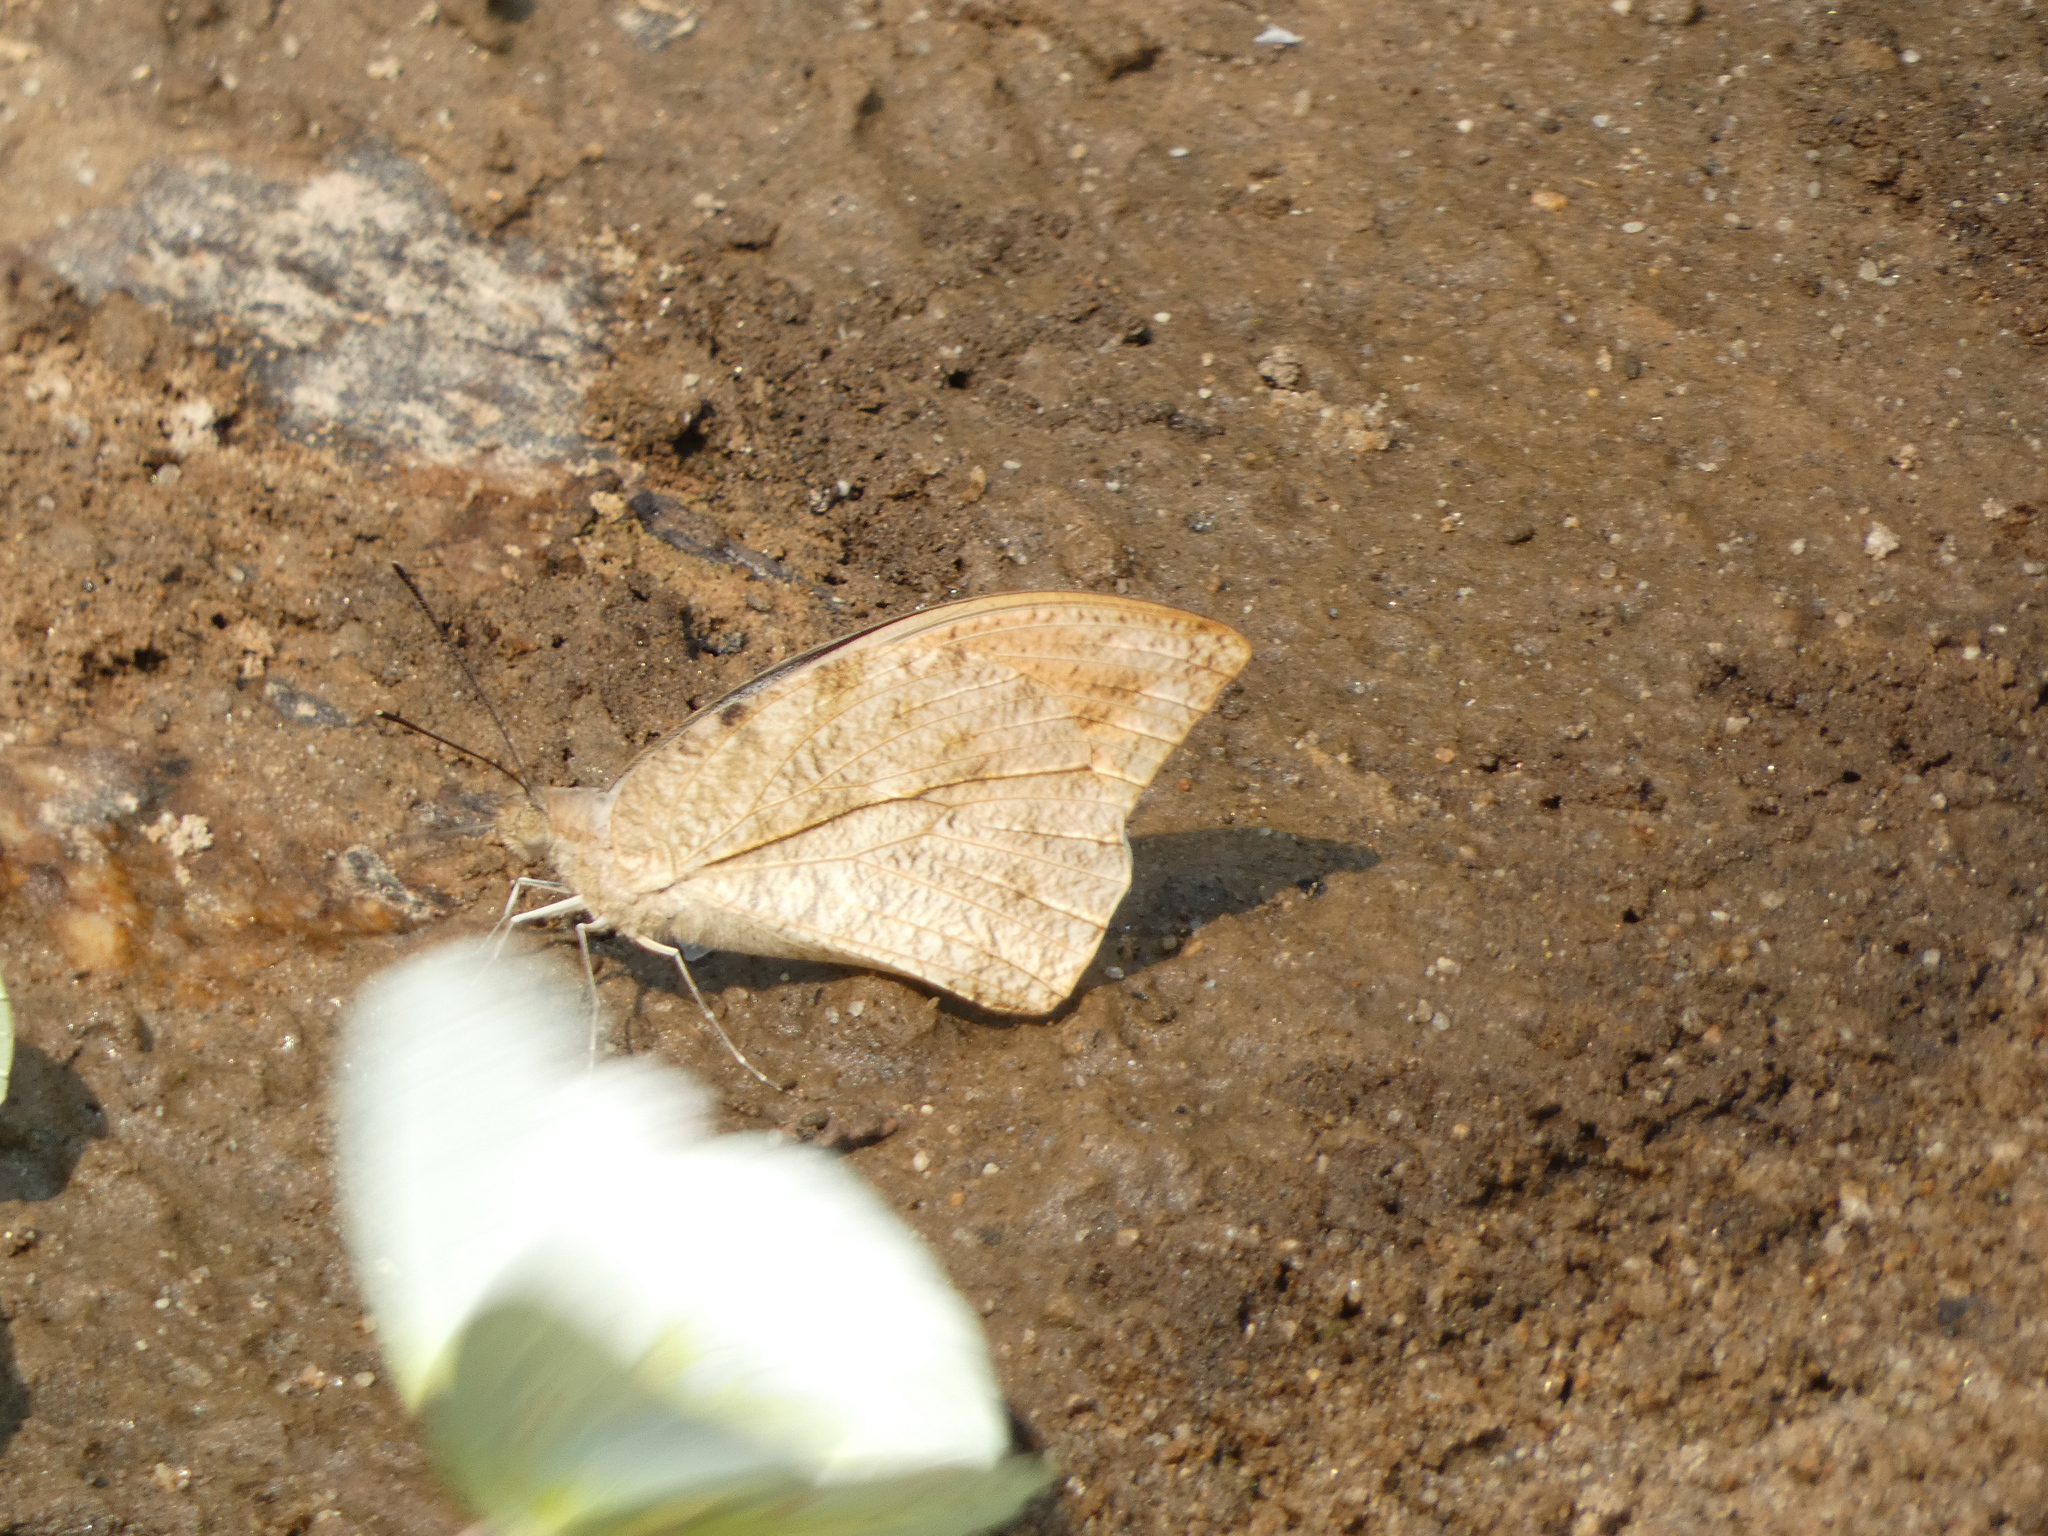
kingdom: Animalia
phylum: Arthropoda
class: Insecta
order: Lepidoptera
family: Pieridae
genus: Hebomoia
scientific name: Hebomoia glaucippe
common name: Great orange tip
